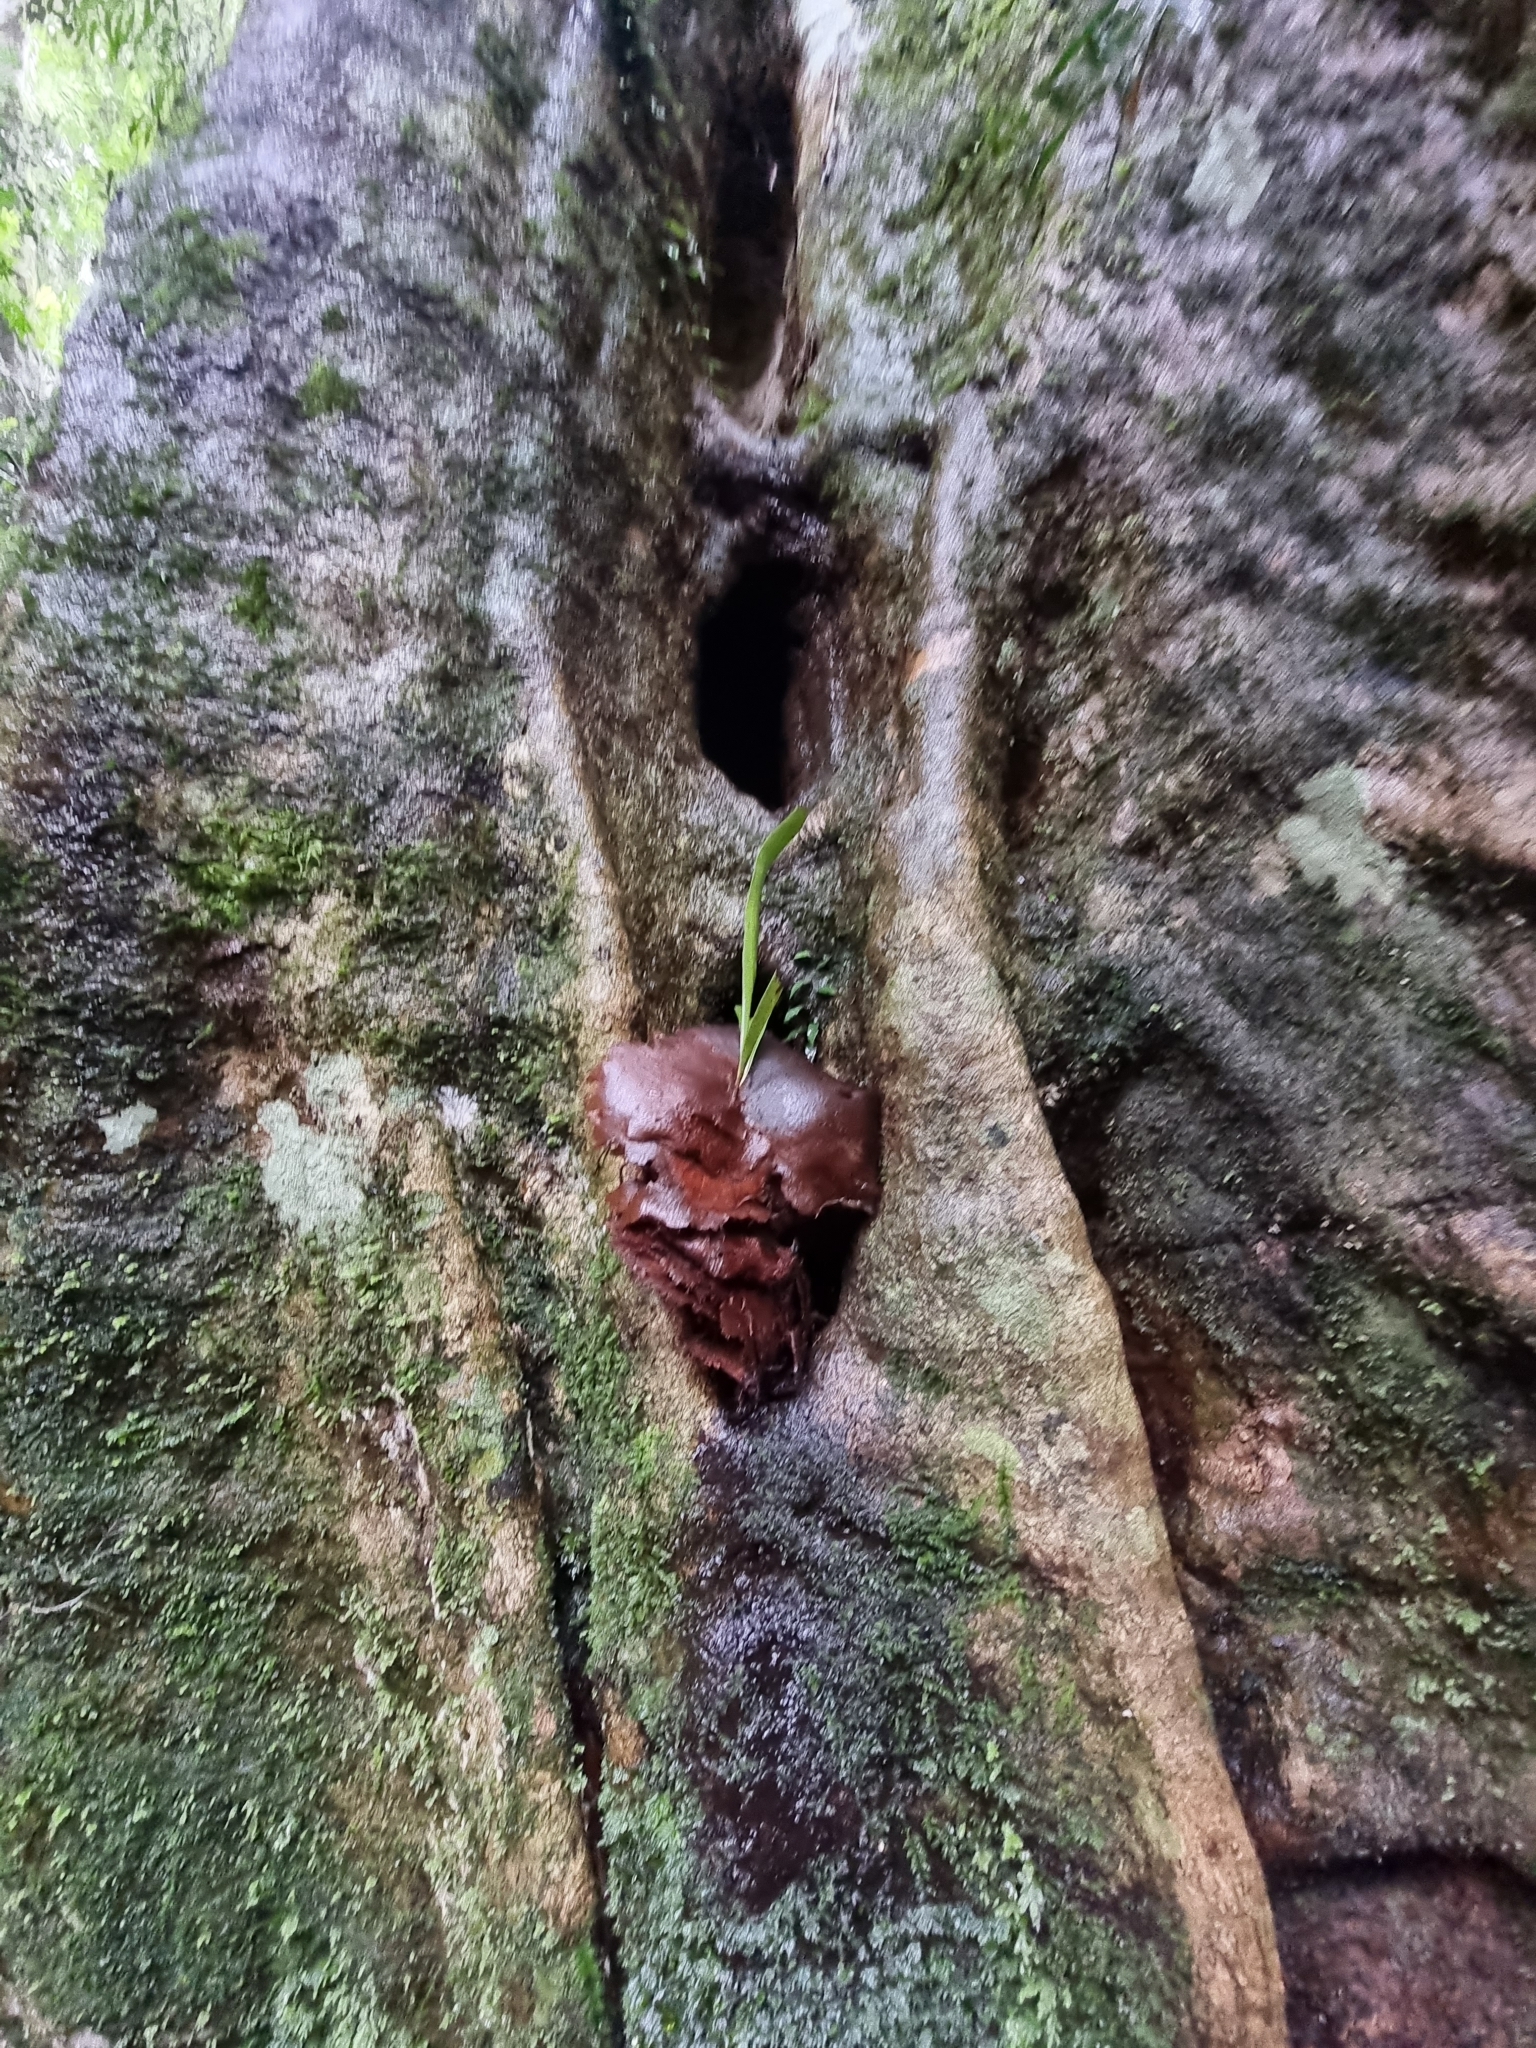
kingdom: Plantae
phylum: Tracheophyta
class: Polypodiopsida
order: Polypodiales
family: Polypodiaceae
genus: Platycerium
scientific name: Platycerium bifurcatum
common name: Elkhorn fern
